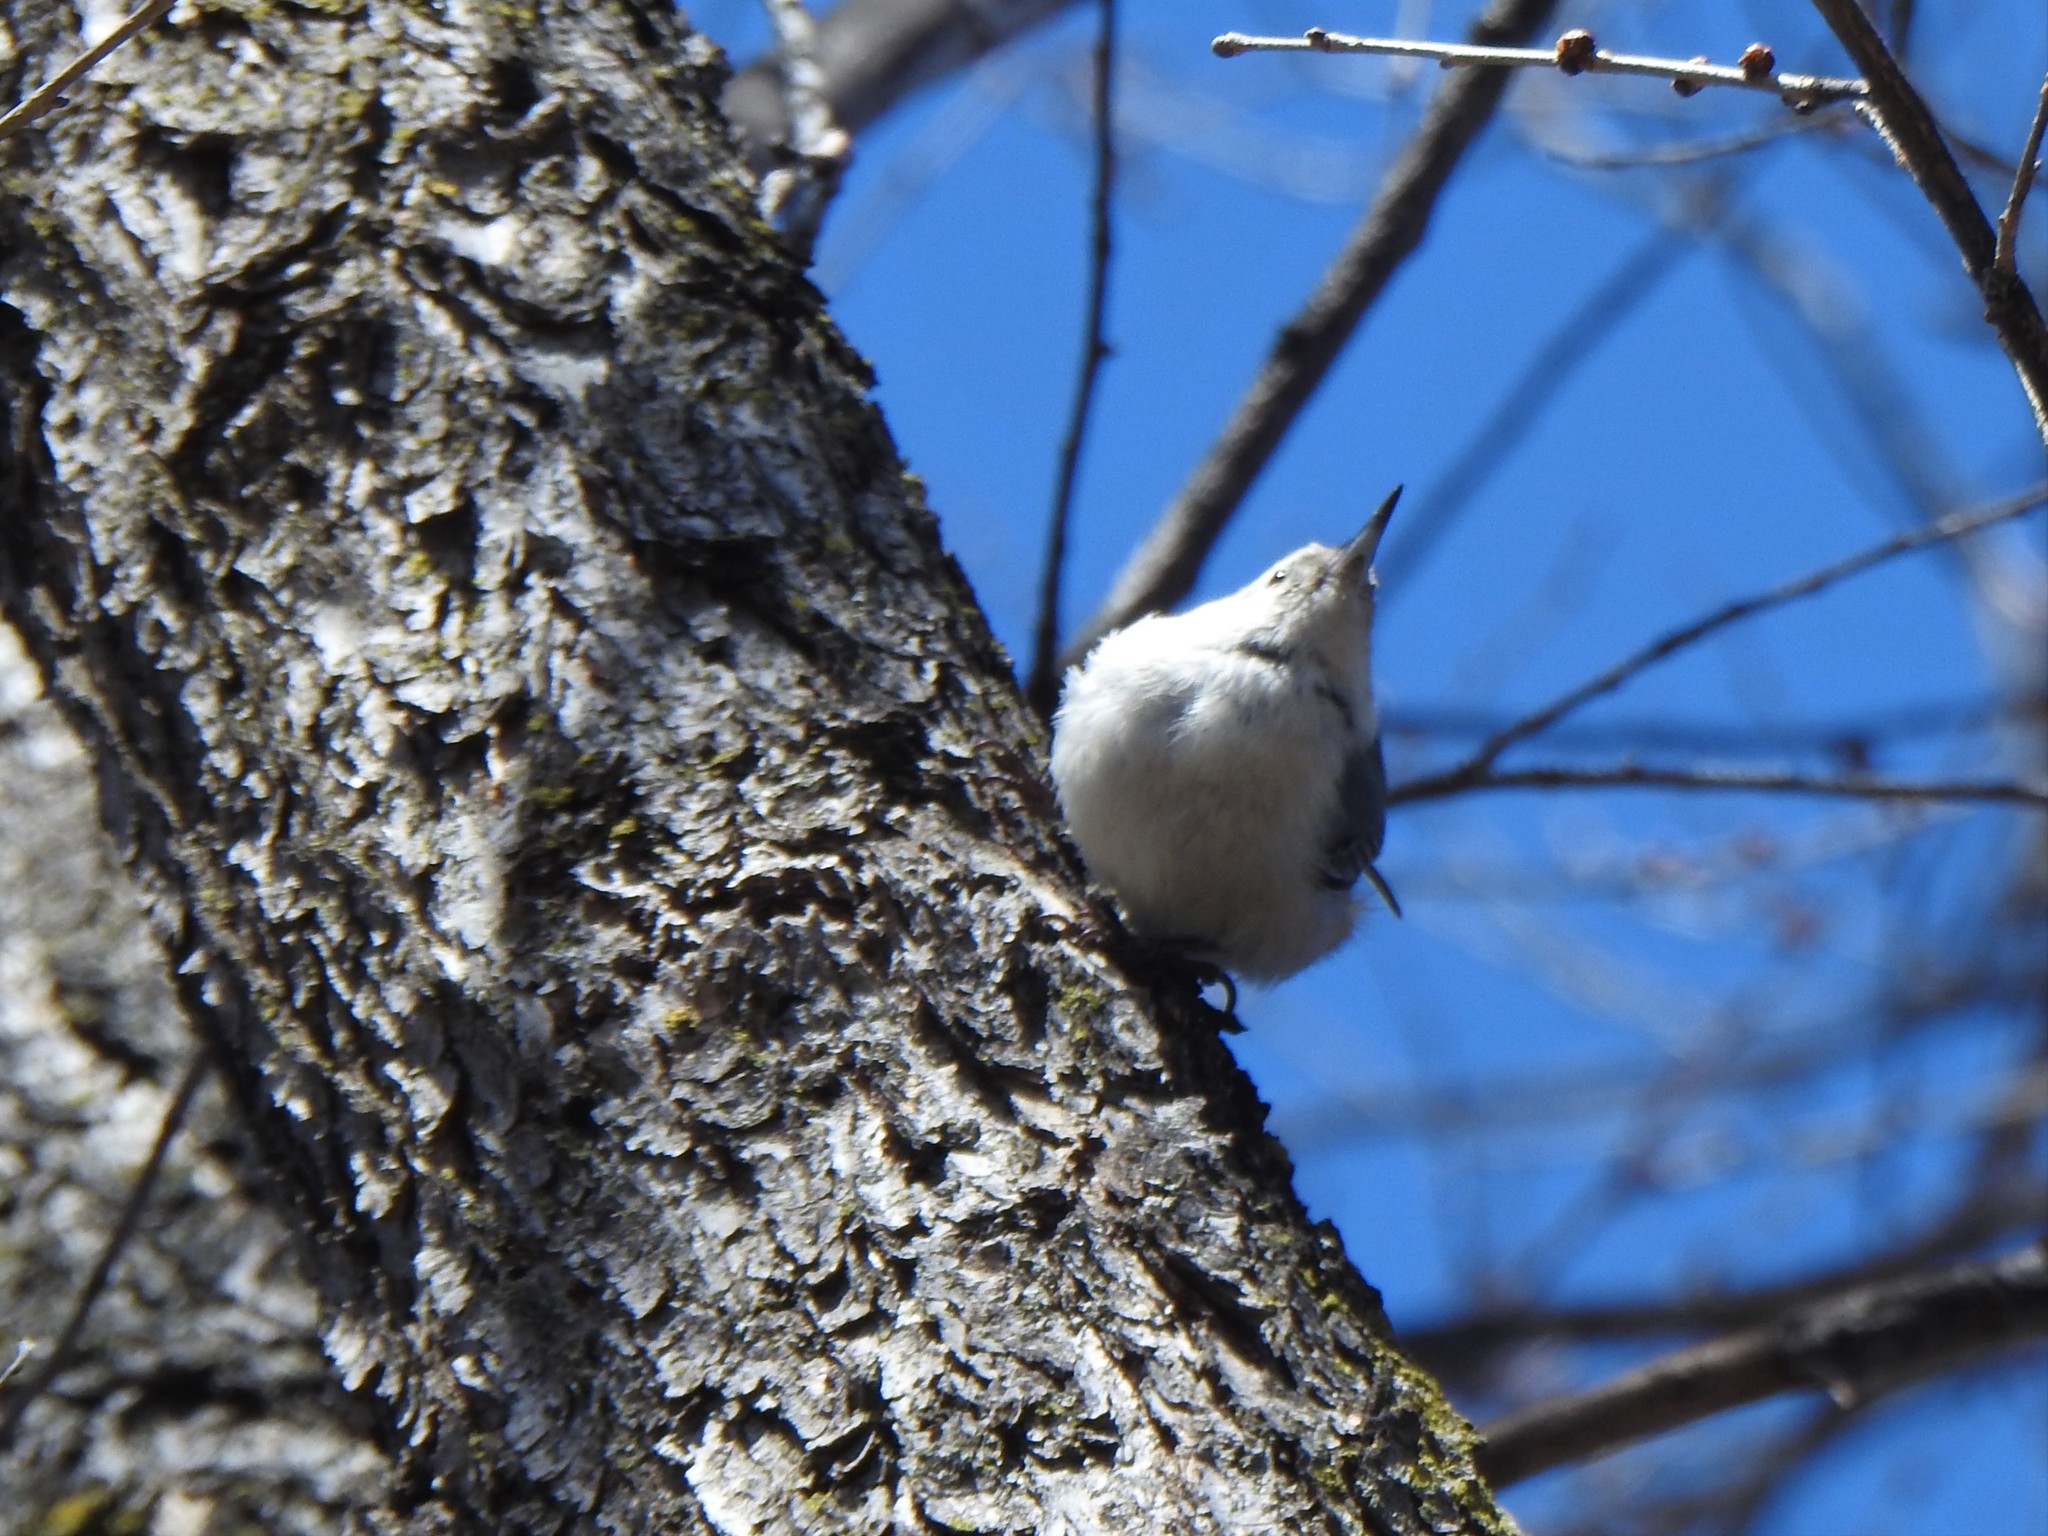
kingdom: Animalia
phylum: Chordata
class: Aves
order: Passeriformes
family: Sittidae
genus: Sitta
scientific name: Sitta carolinensis
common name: White-breasted nuthatch
